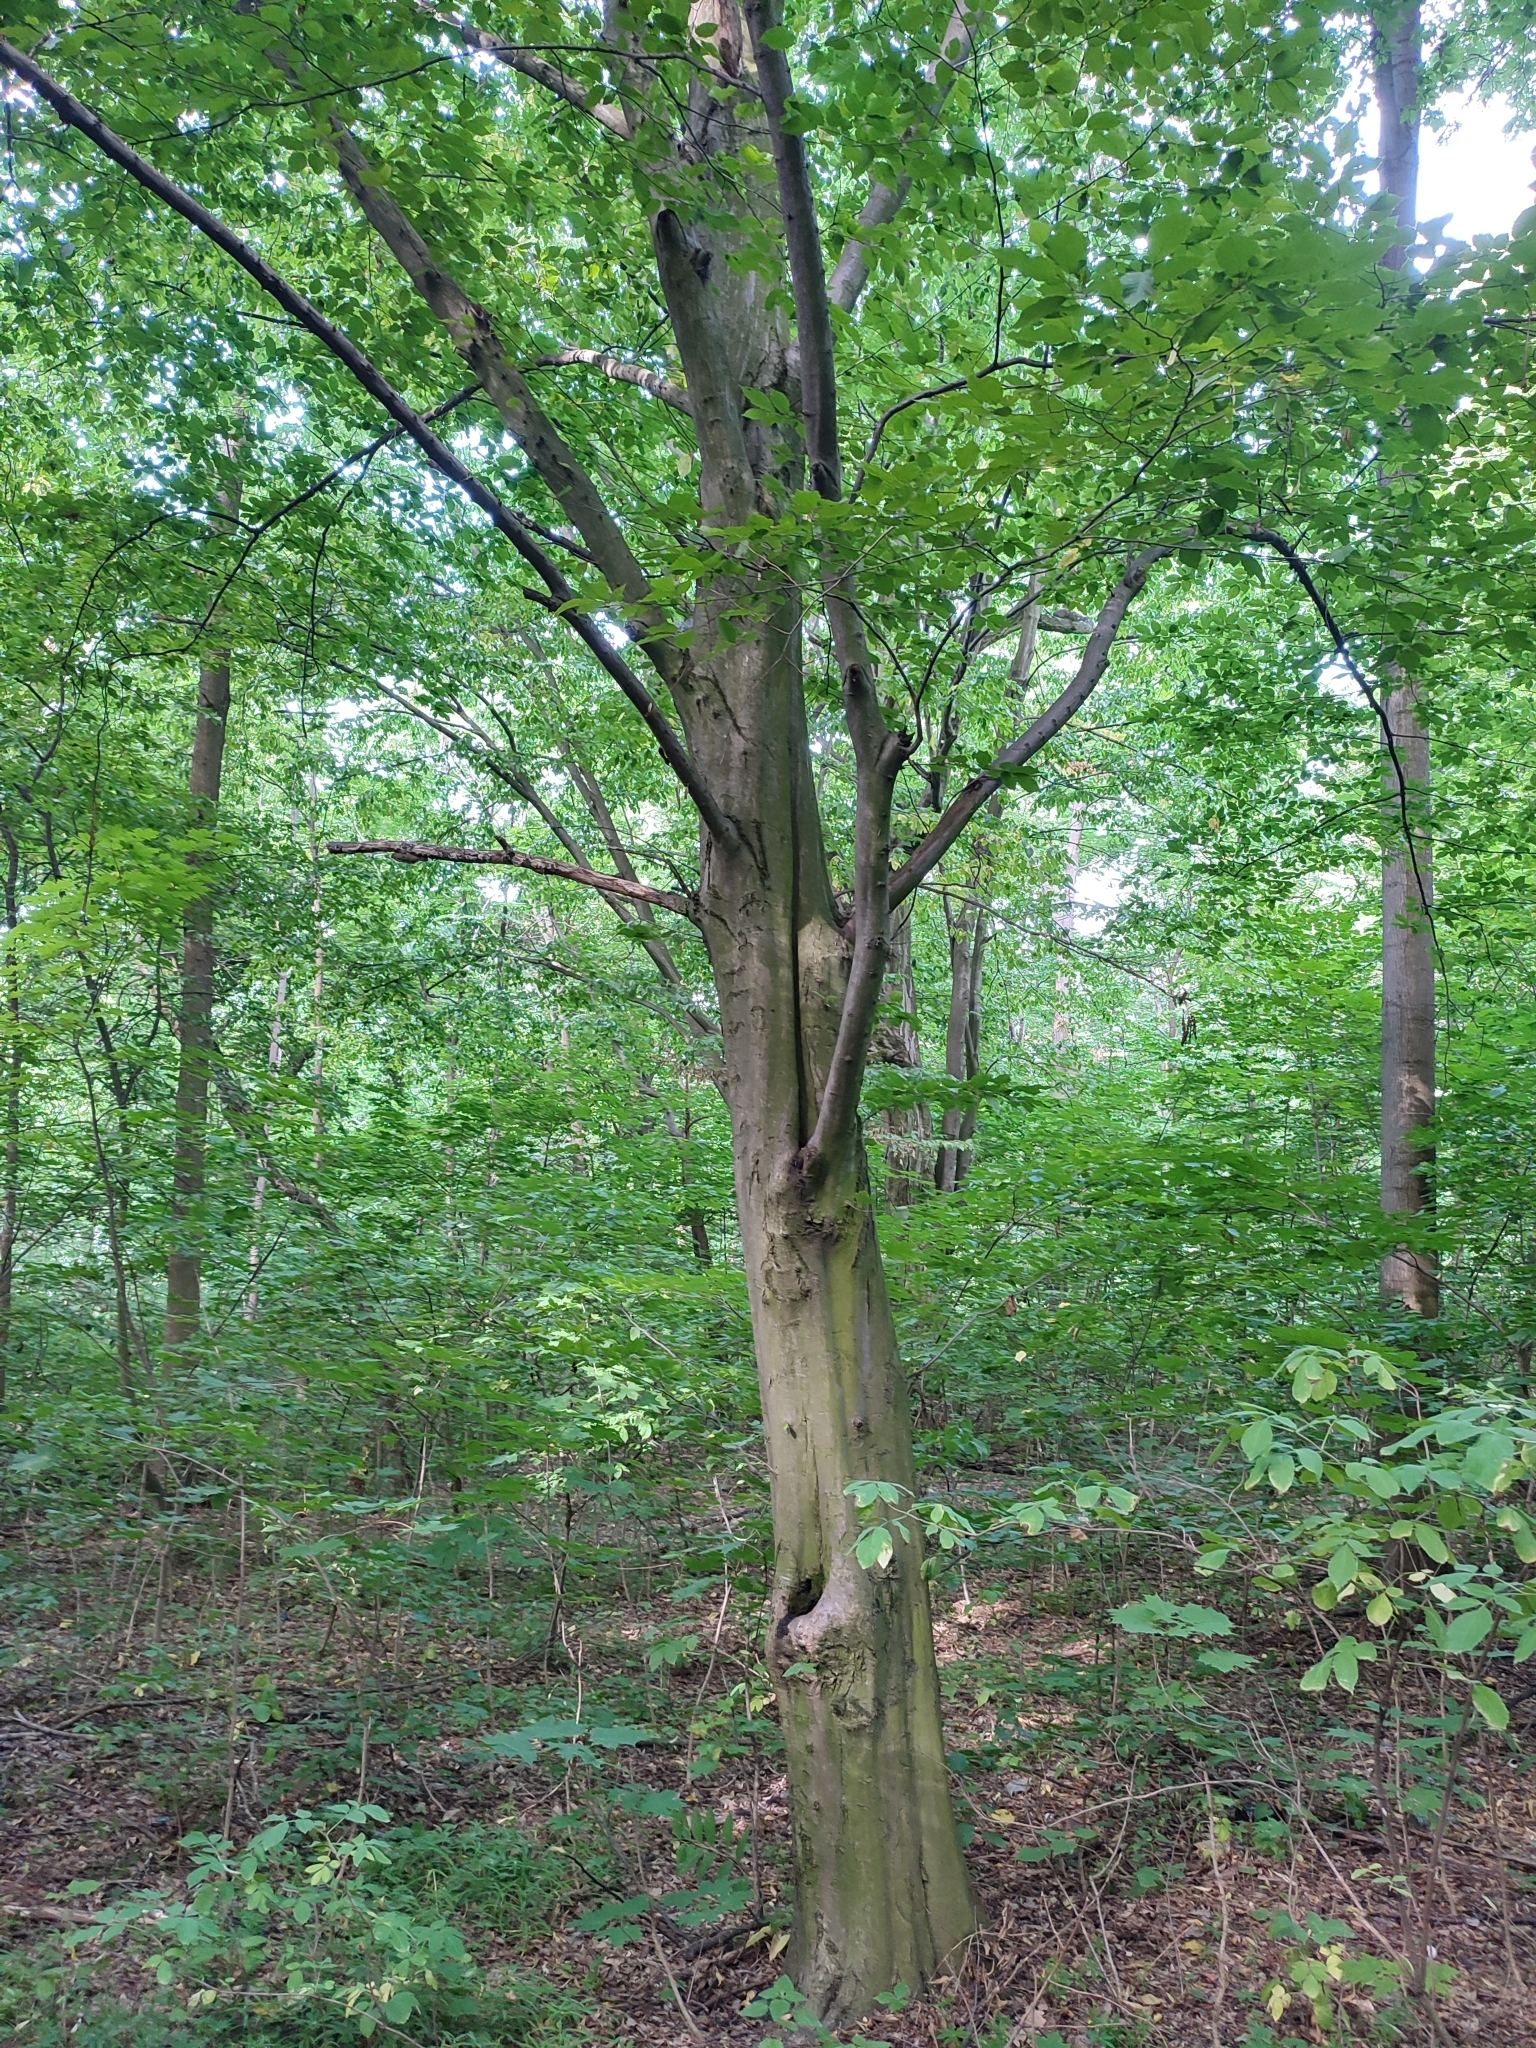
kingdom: Plantae
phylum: Tracheophyta
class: Magnoliopsida
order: Fagales
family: Betulaceae
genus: Carpinus
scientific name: Carpinus betulus
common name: Hornbeam
